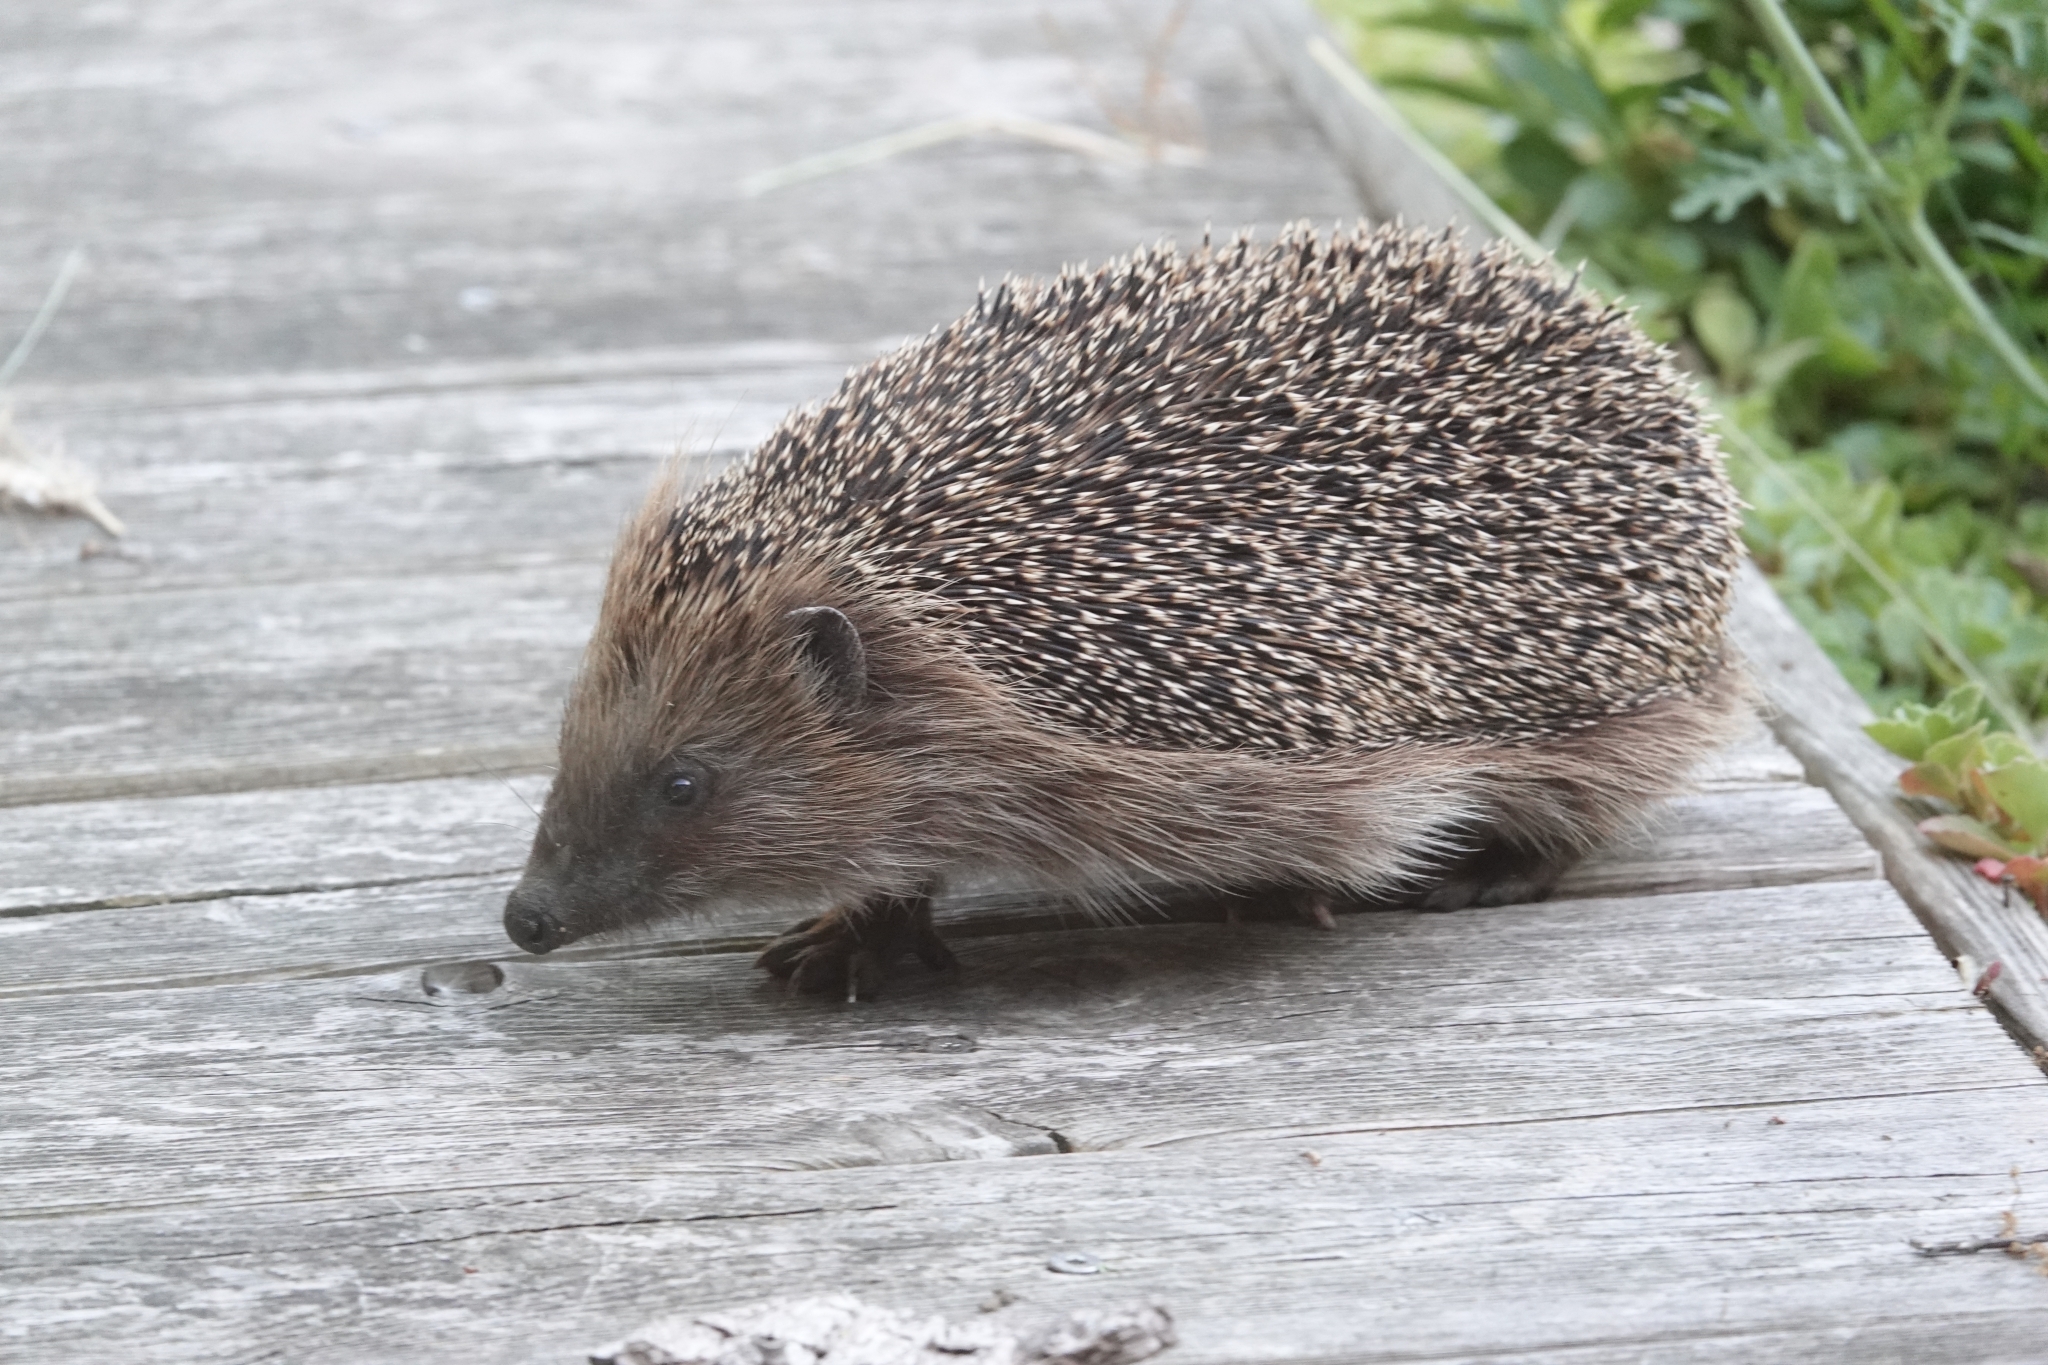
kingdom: Animalia
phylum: Chordata
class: Mammalia
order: Erinaceomorpha
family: Erinaceidae
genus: Erinaceus
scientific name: Erinaceus europaeus
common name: West european hedgehog
